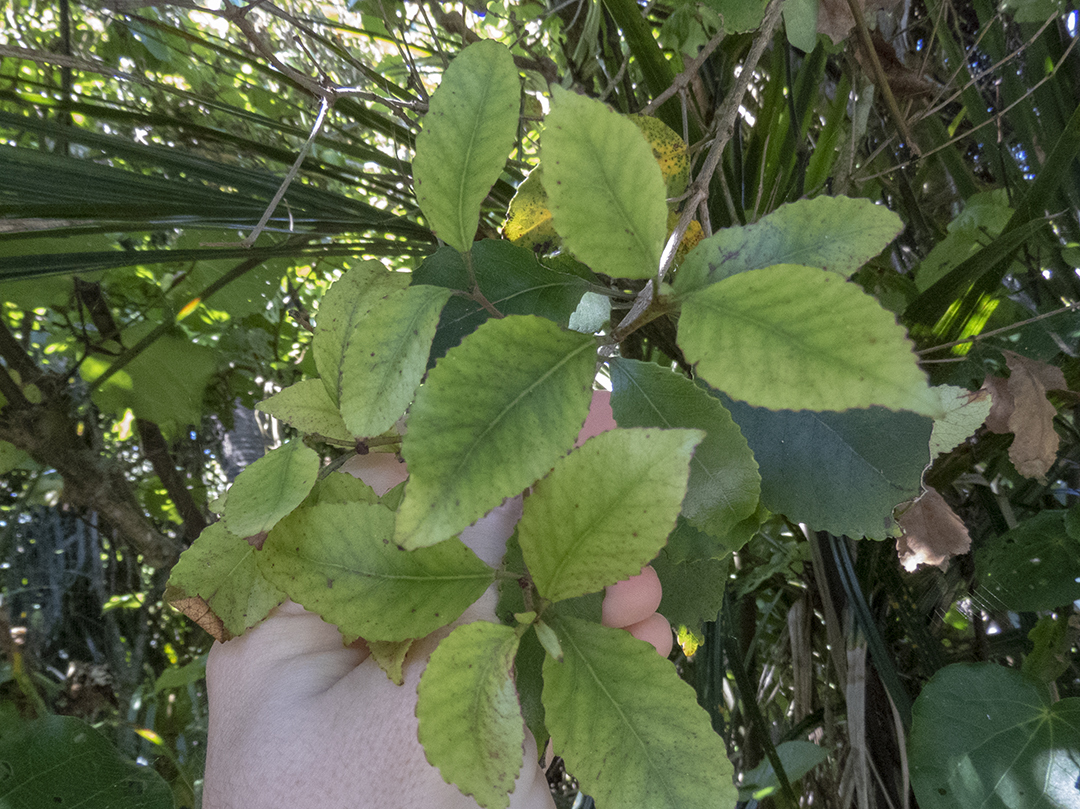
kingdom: Plantae
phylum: Tracheophyta
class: Magnoliopsida
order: Oxalidales
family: Cunoniaceae
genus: Pterophylla
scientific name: Pterophylla racemosa
